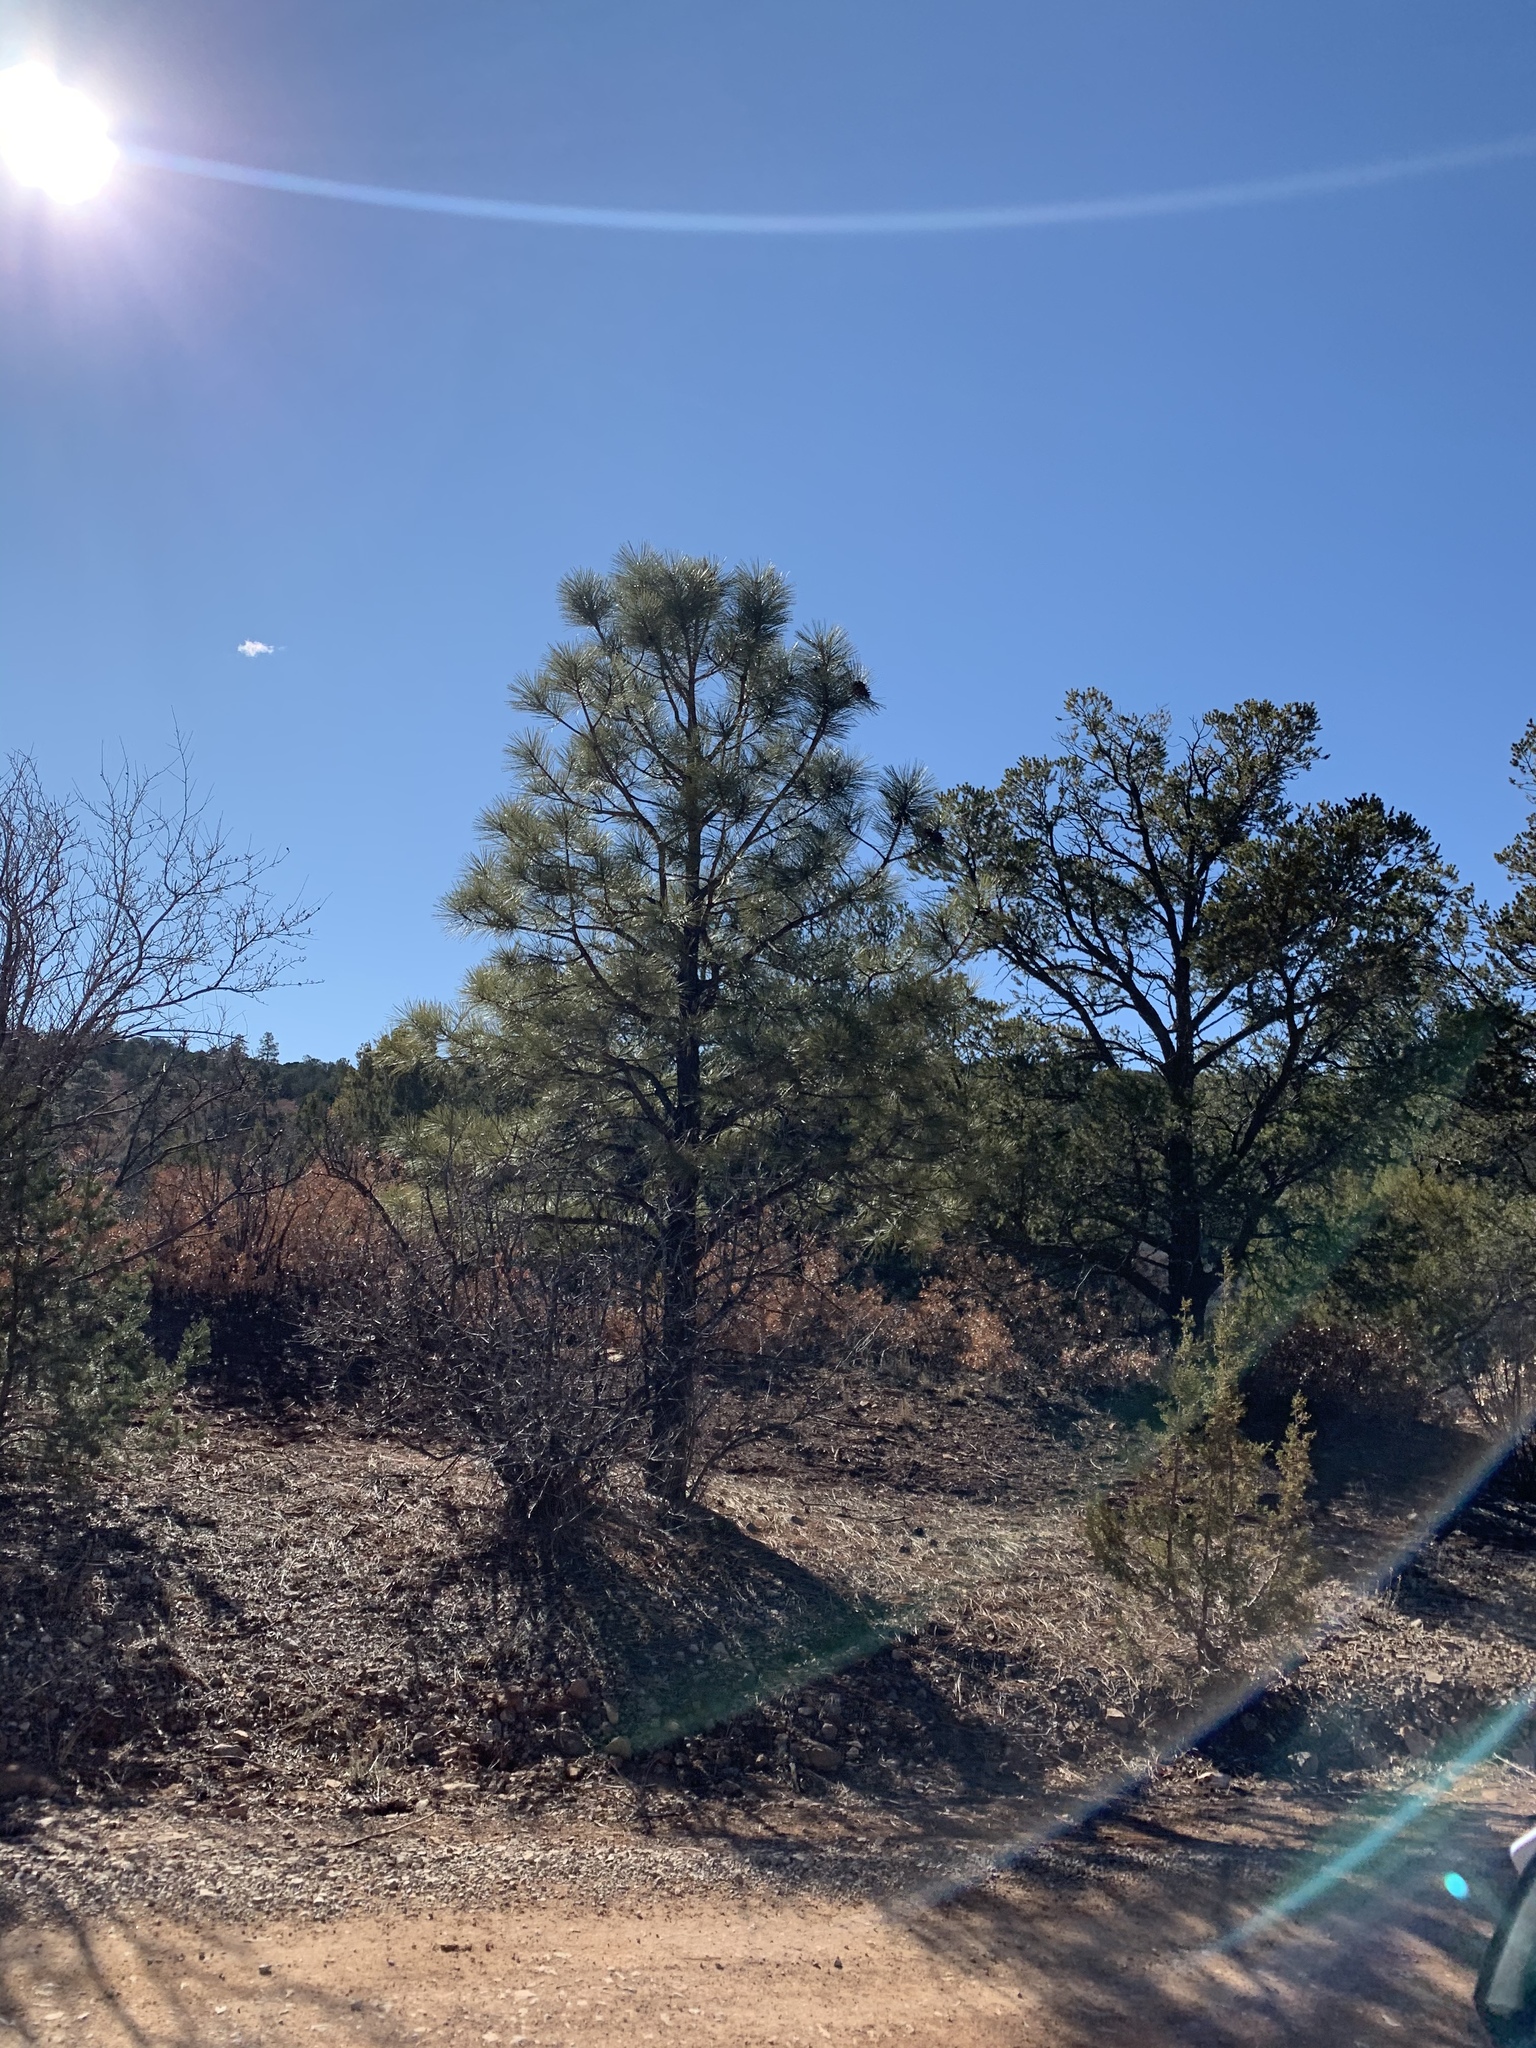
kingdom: Plantae
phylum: Tracheophyta
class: Pinopsida
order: Pinales
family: Pinaceae
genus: Pinus
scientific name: Pinus ponderosa
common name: Western yellow-pine
